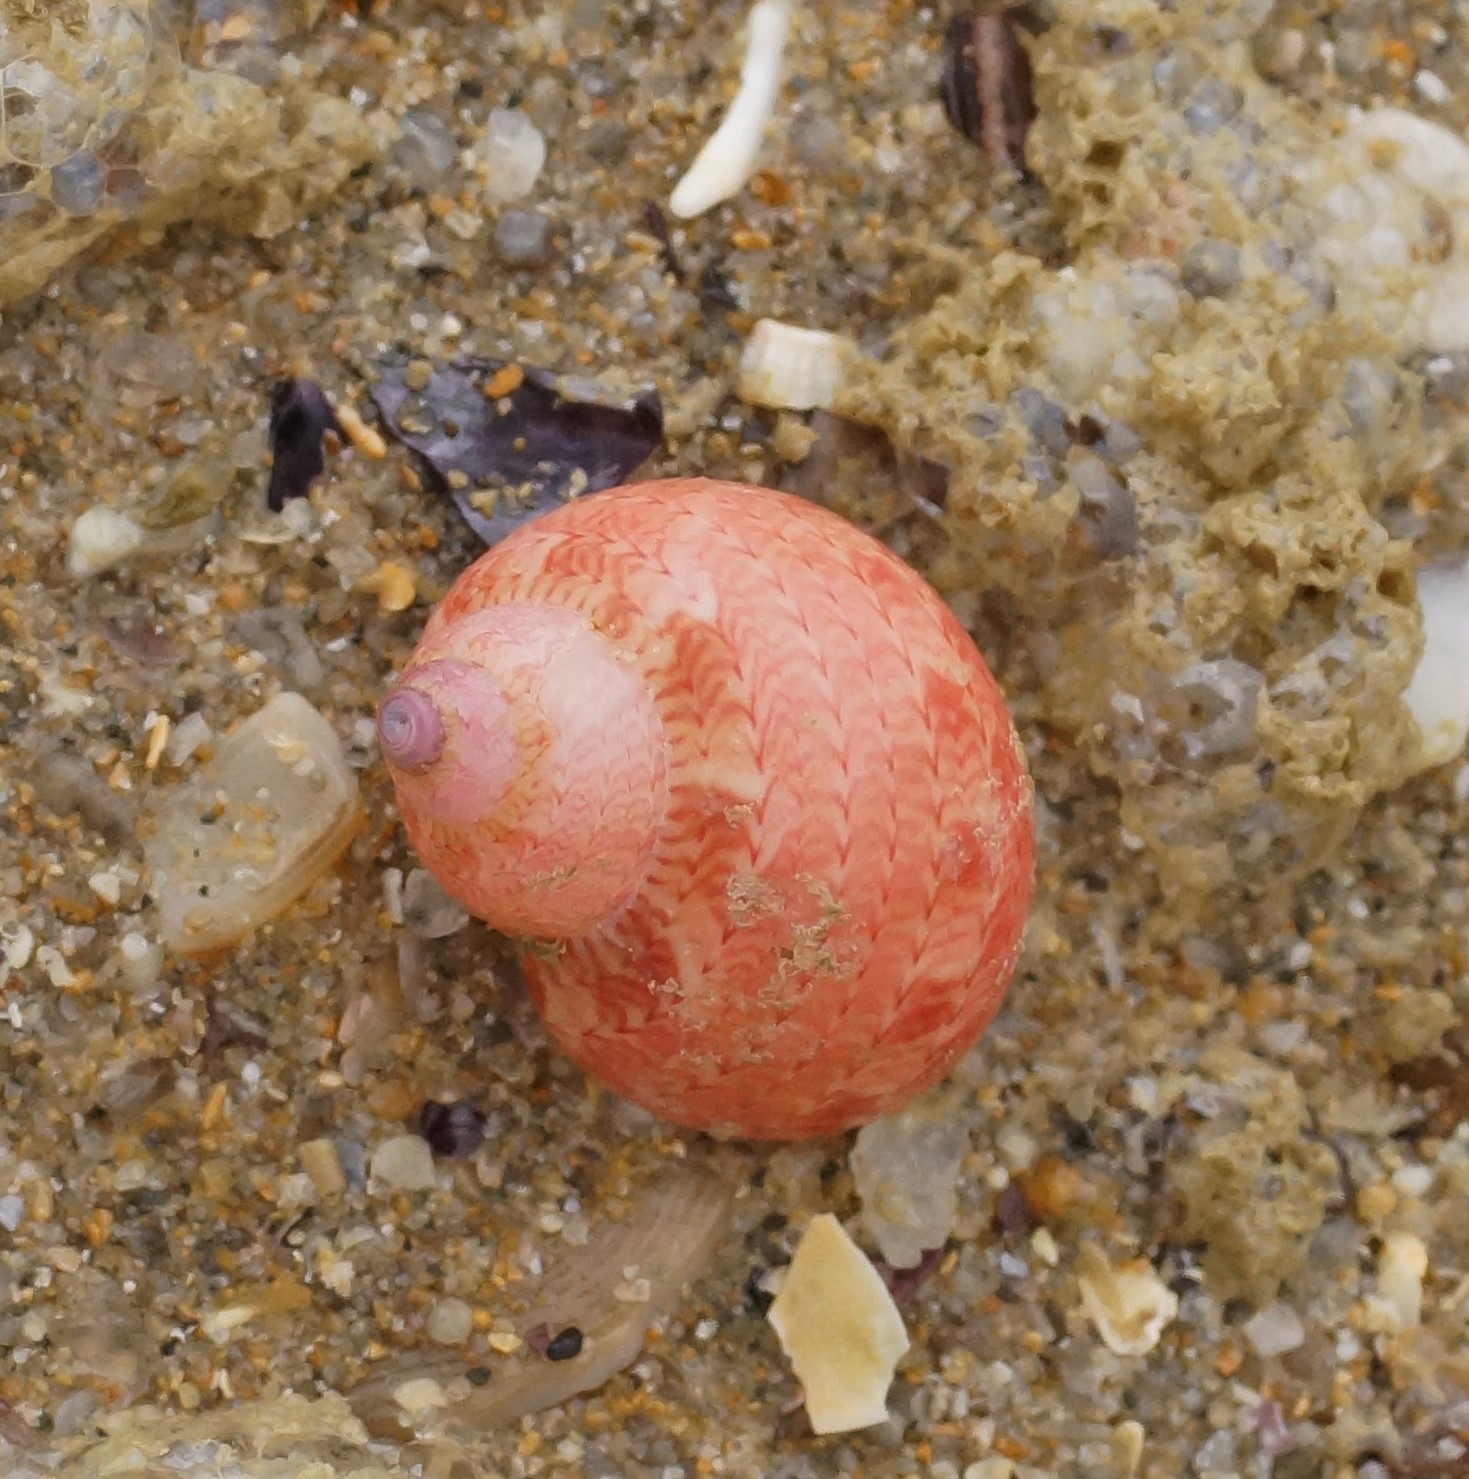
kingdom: Animalia
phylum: Mollusca
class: Gastropoda
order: Trochida
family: Phasianellidae
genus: Phasianella
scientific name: Phasianella ventricosa
